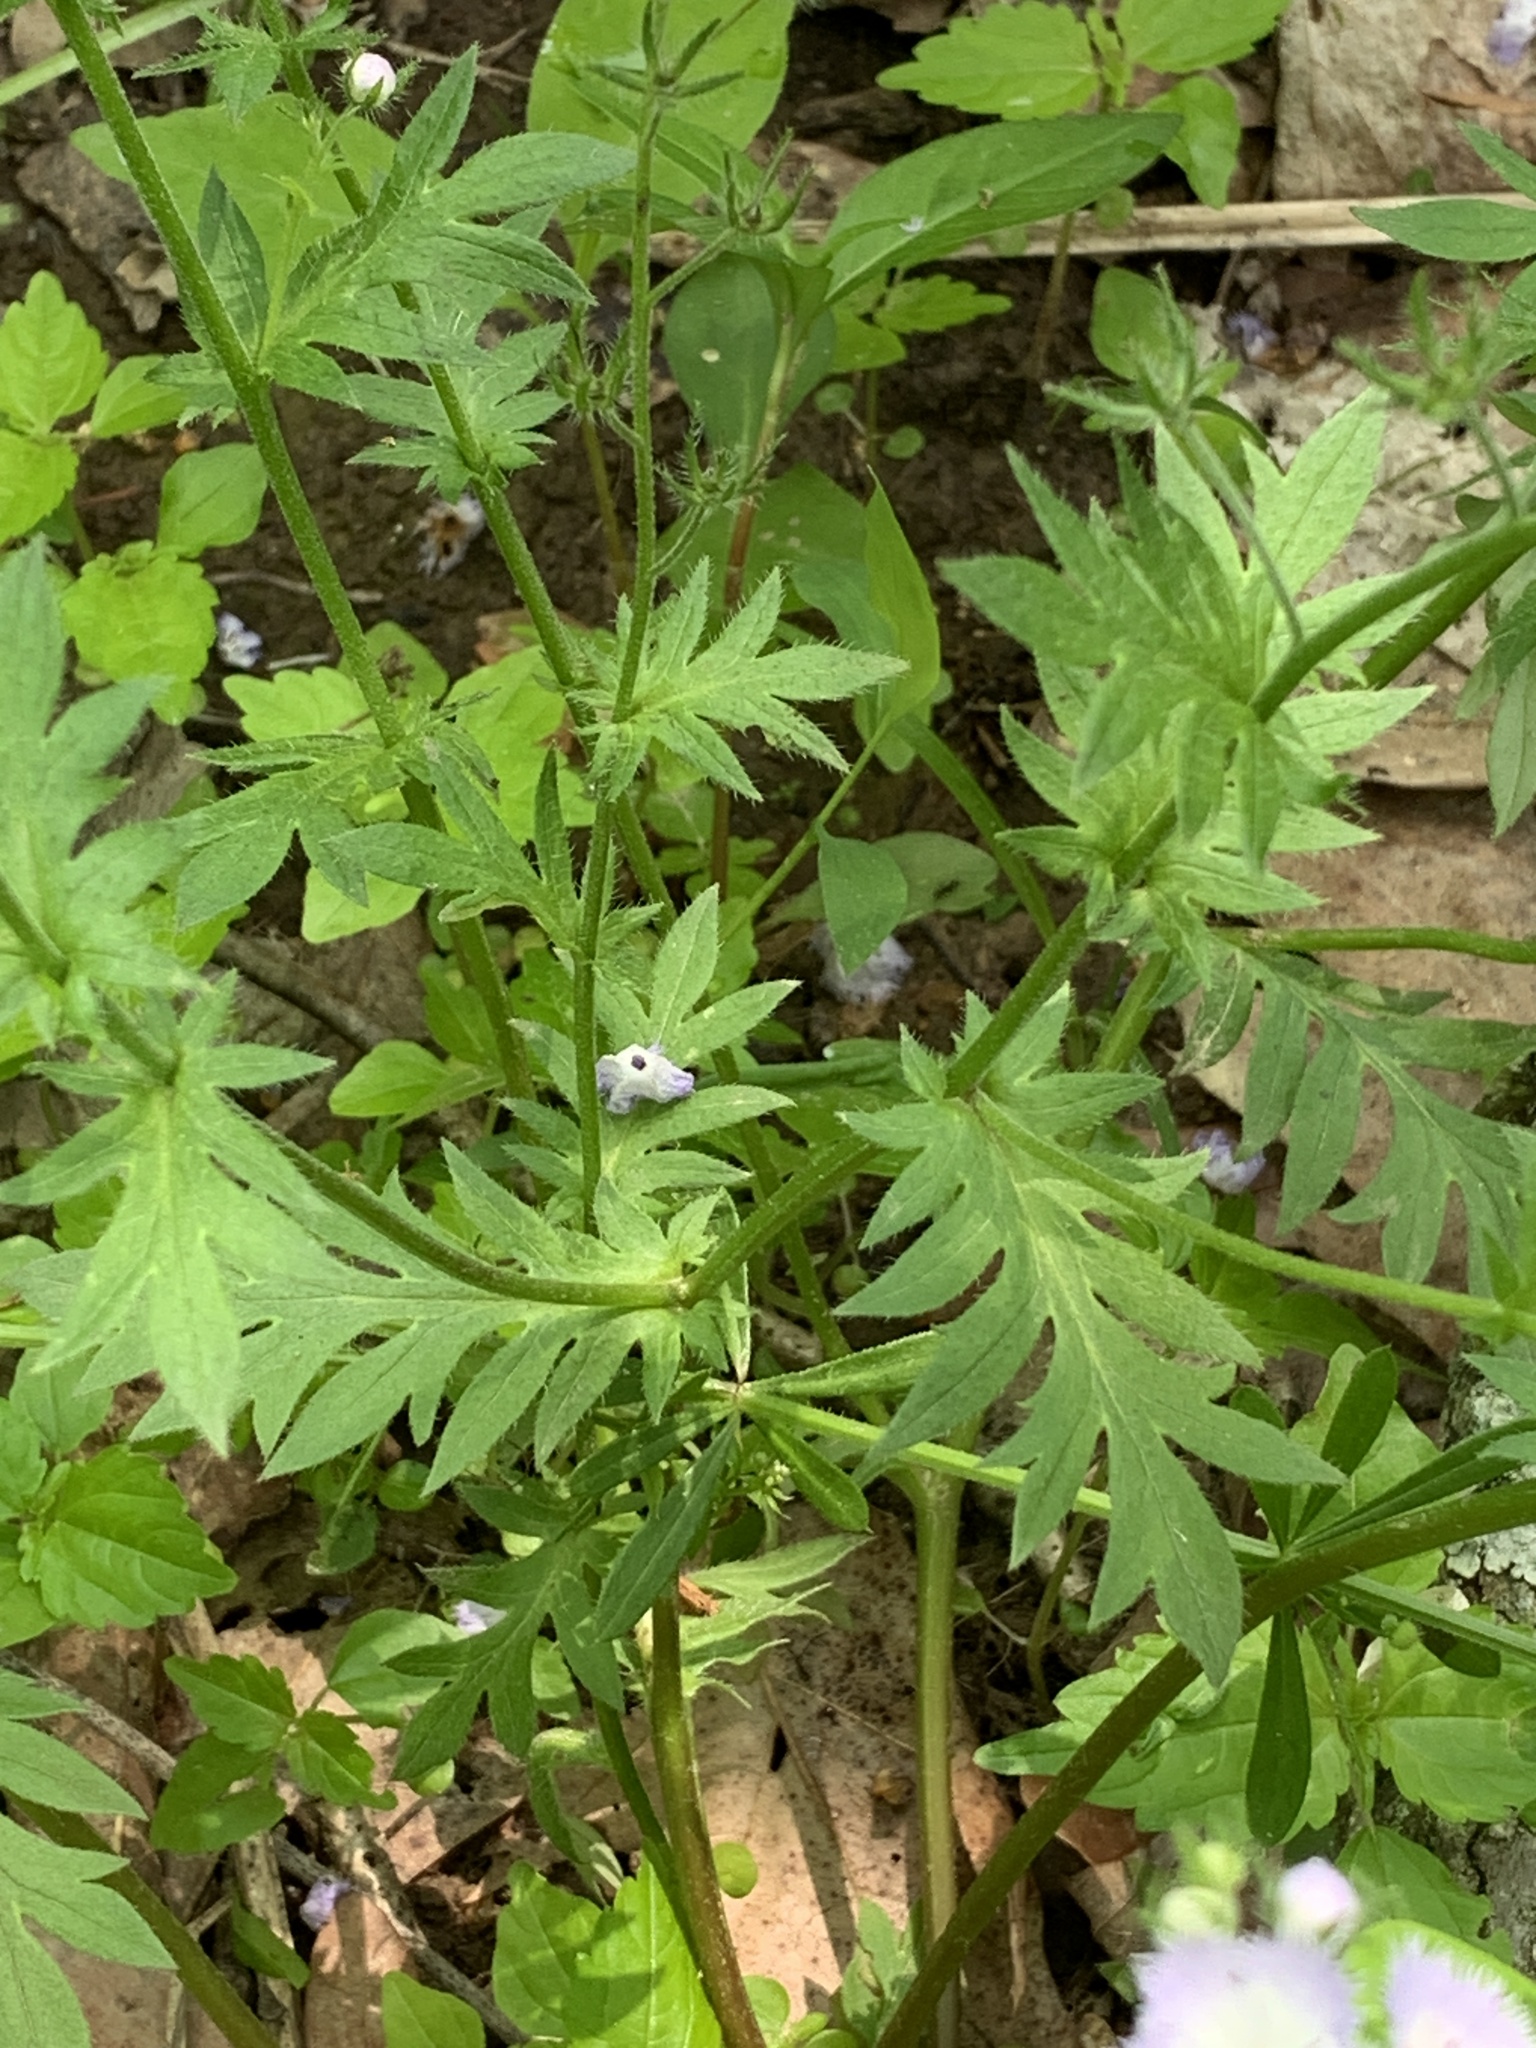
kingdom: Plantae
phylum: Tracheophyta
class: Magnoliopsida
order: Boraginales
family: Hydrophyllaceae
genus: Phacelia
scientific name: Phacelia purshii
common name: Miami-mist
